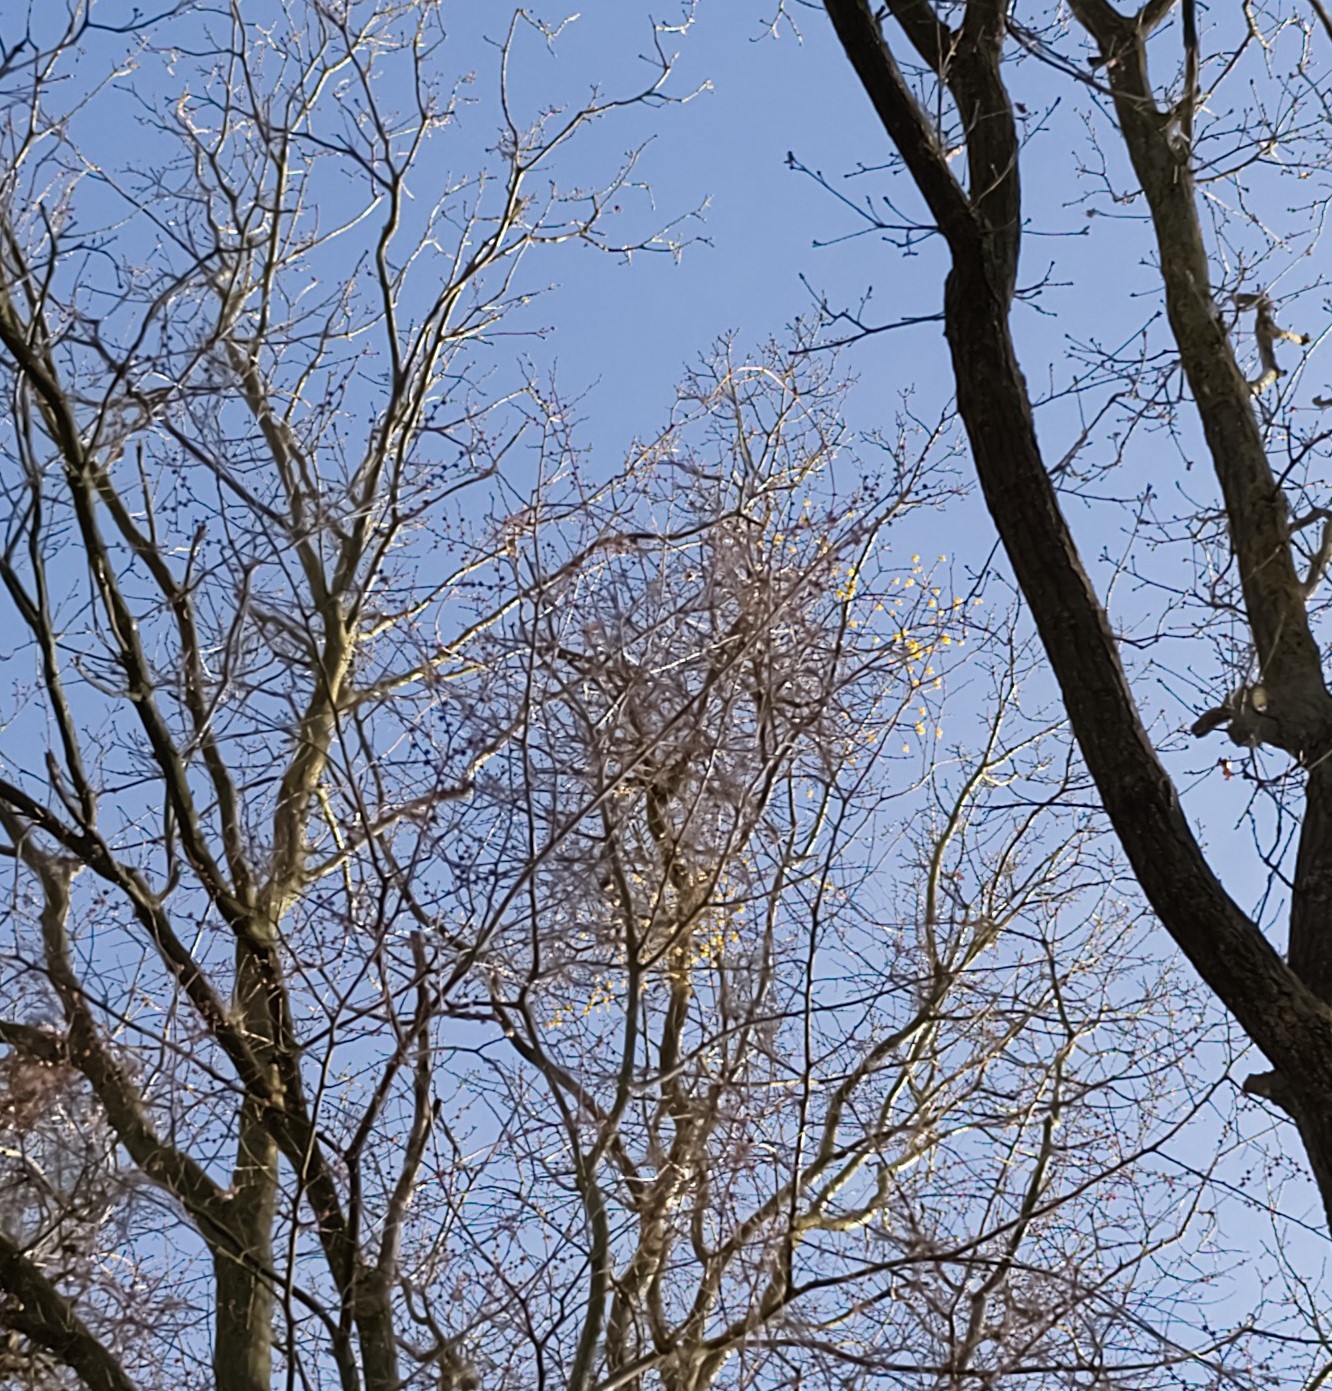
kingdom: Plantae
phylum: Tracheophyta
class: Magnoliopsida
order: Santalales
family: Loranthaceae
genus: Loranthus
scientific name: Loranthus europaeus
